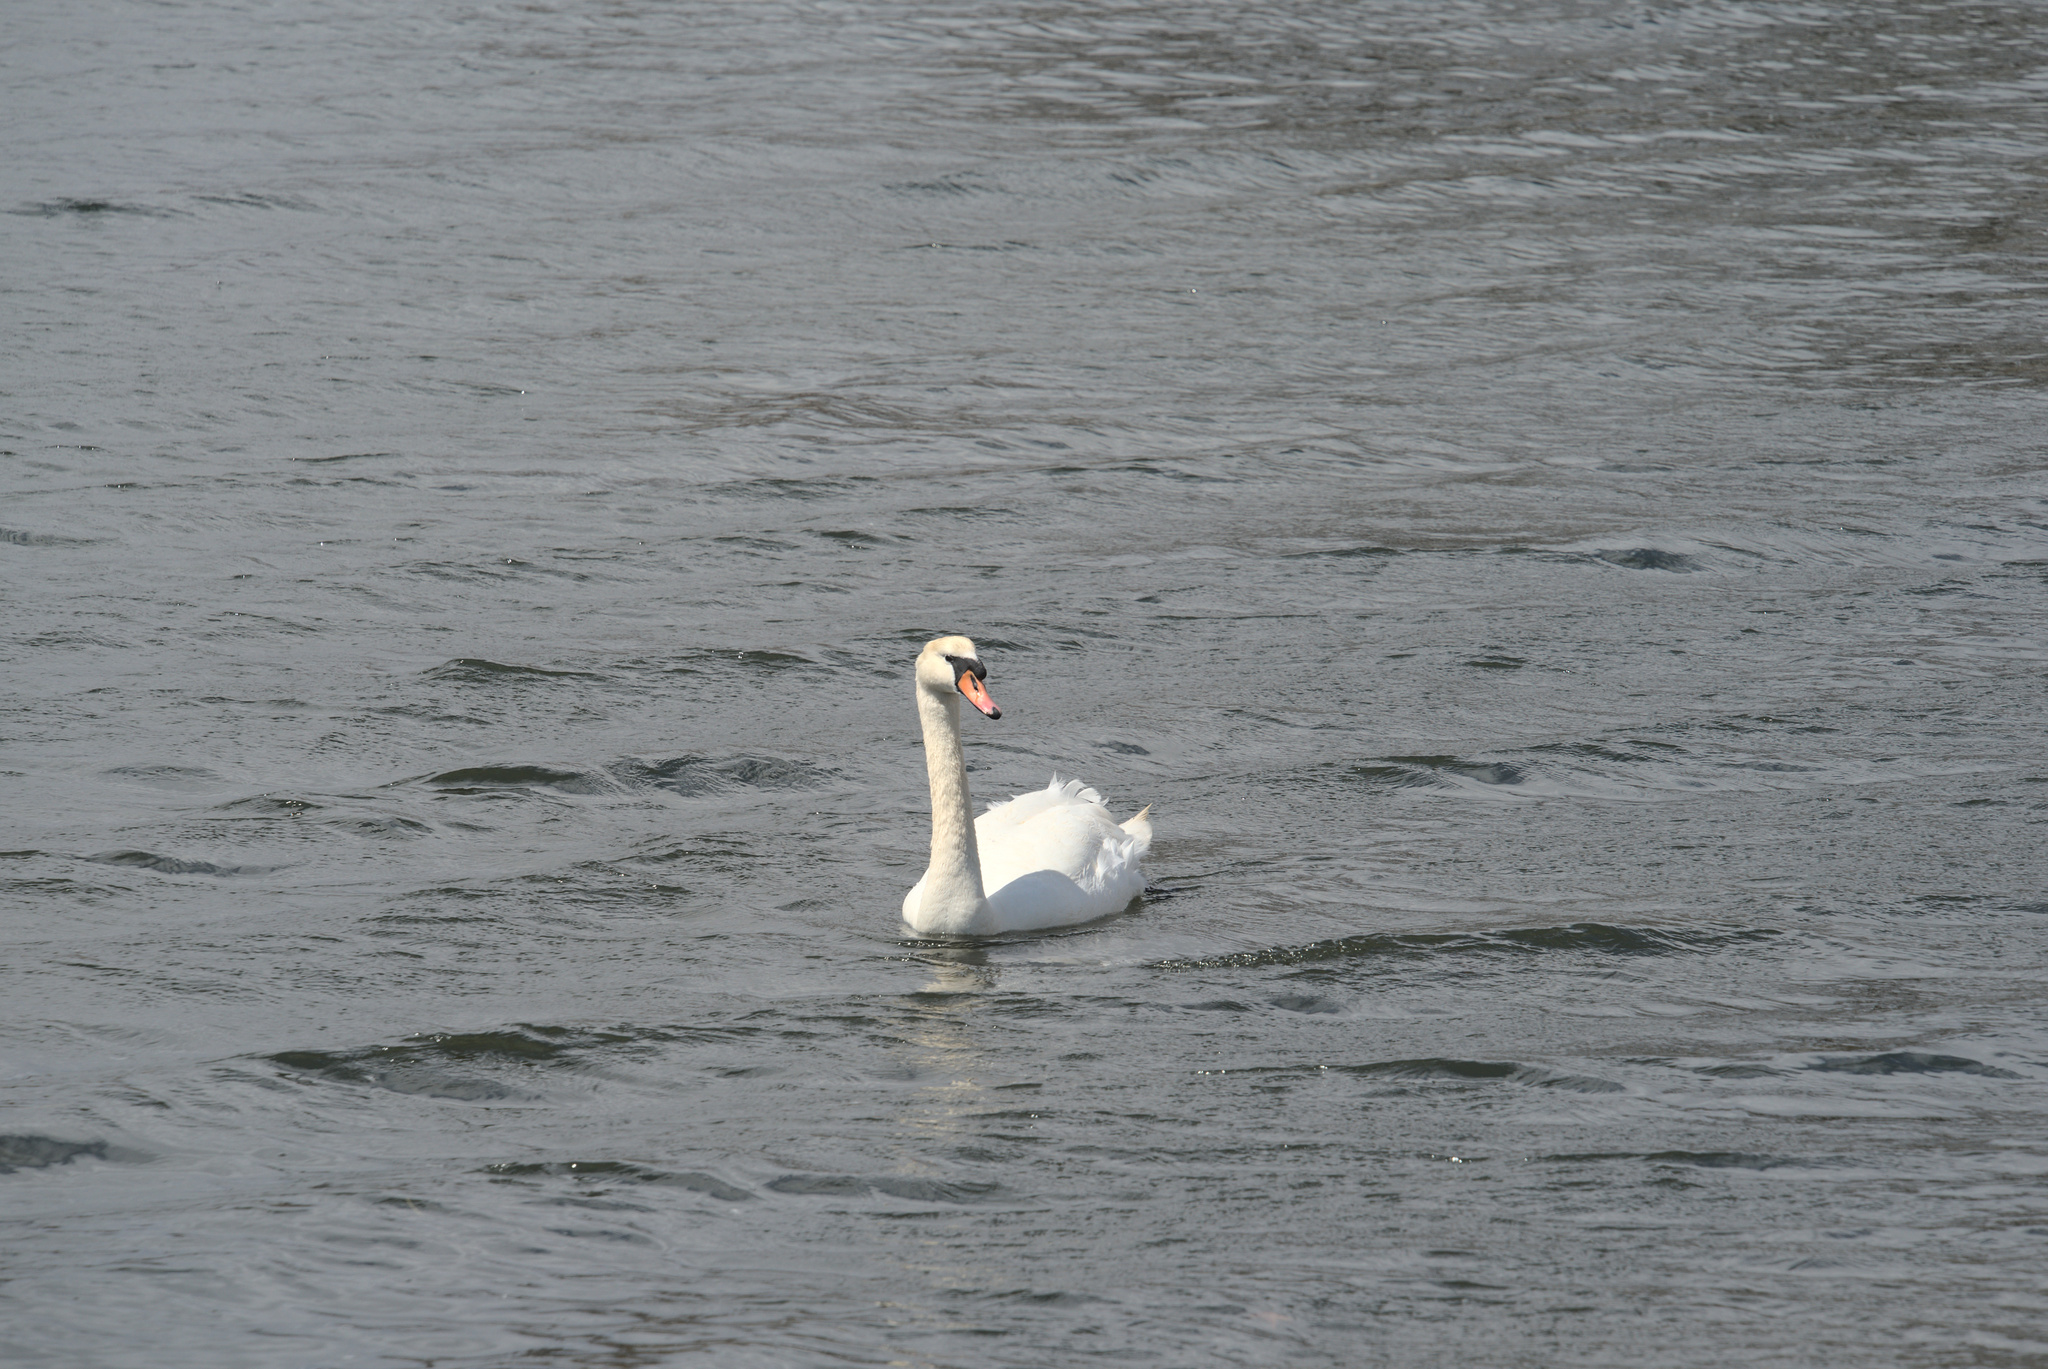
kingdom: Animalia
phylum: Chordata
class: Aves
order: Anseriformes
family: Anatidae
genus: Cygnus
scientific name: Cygnus olor
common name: Mute swan
